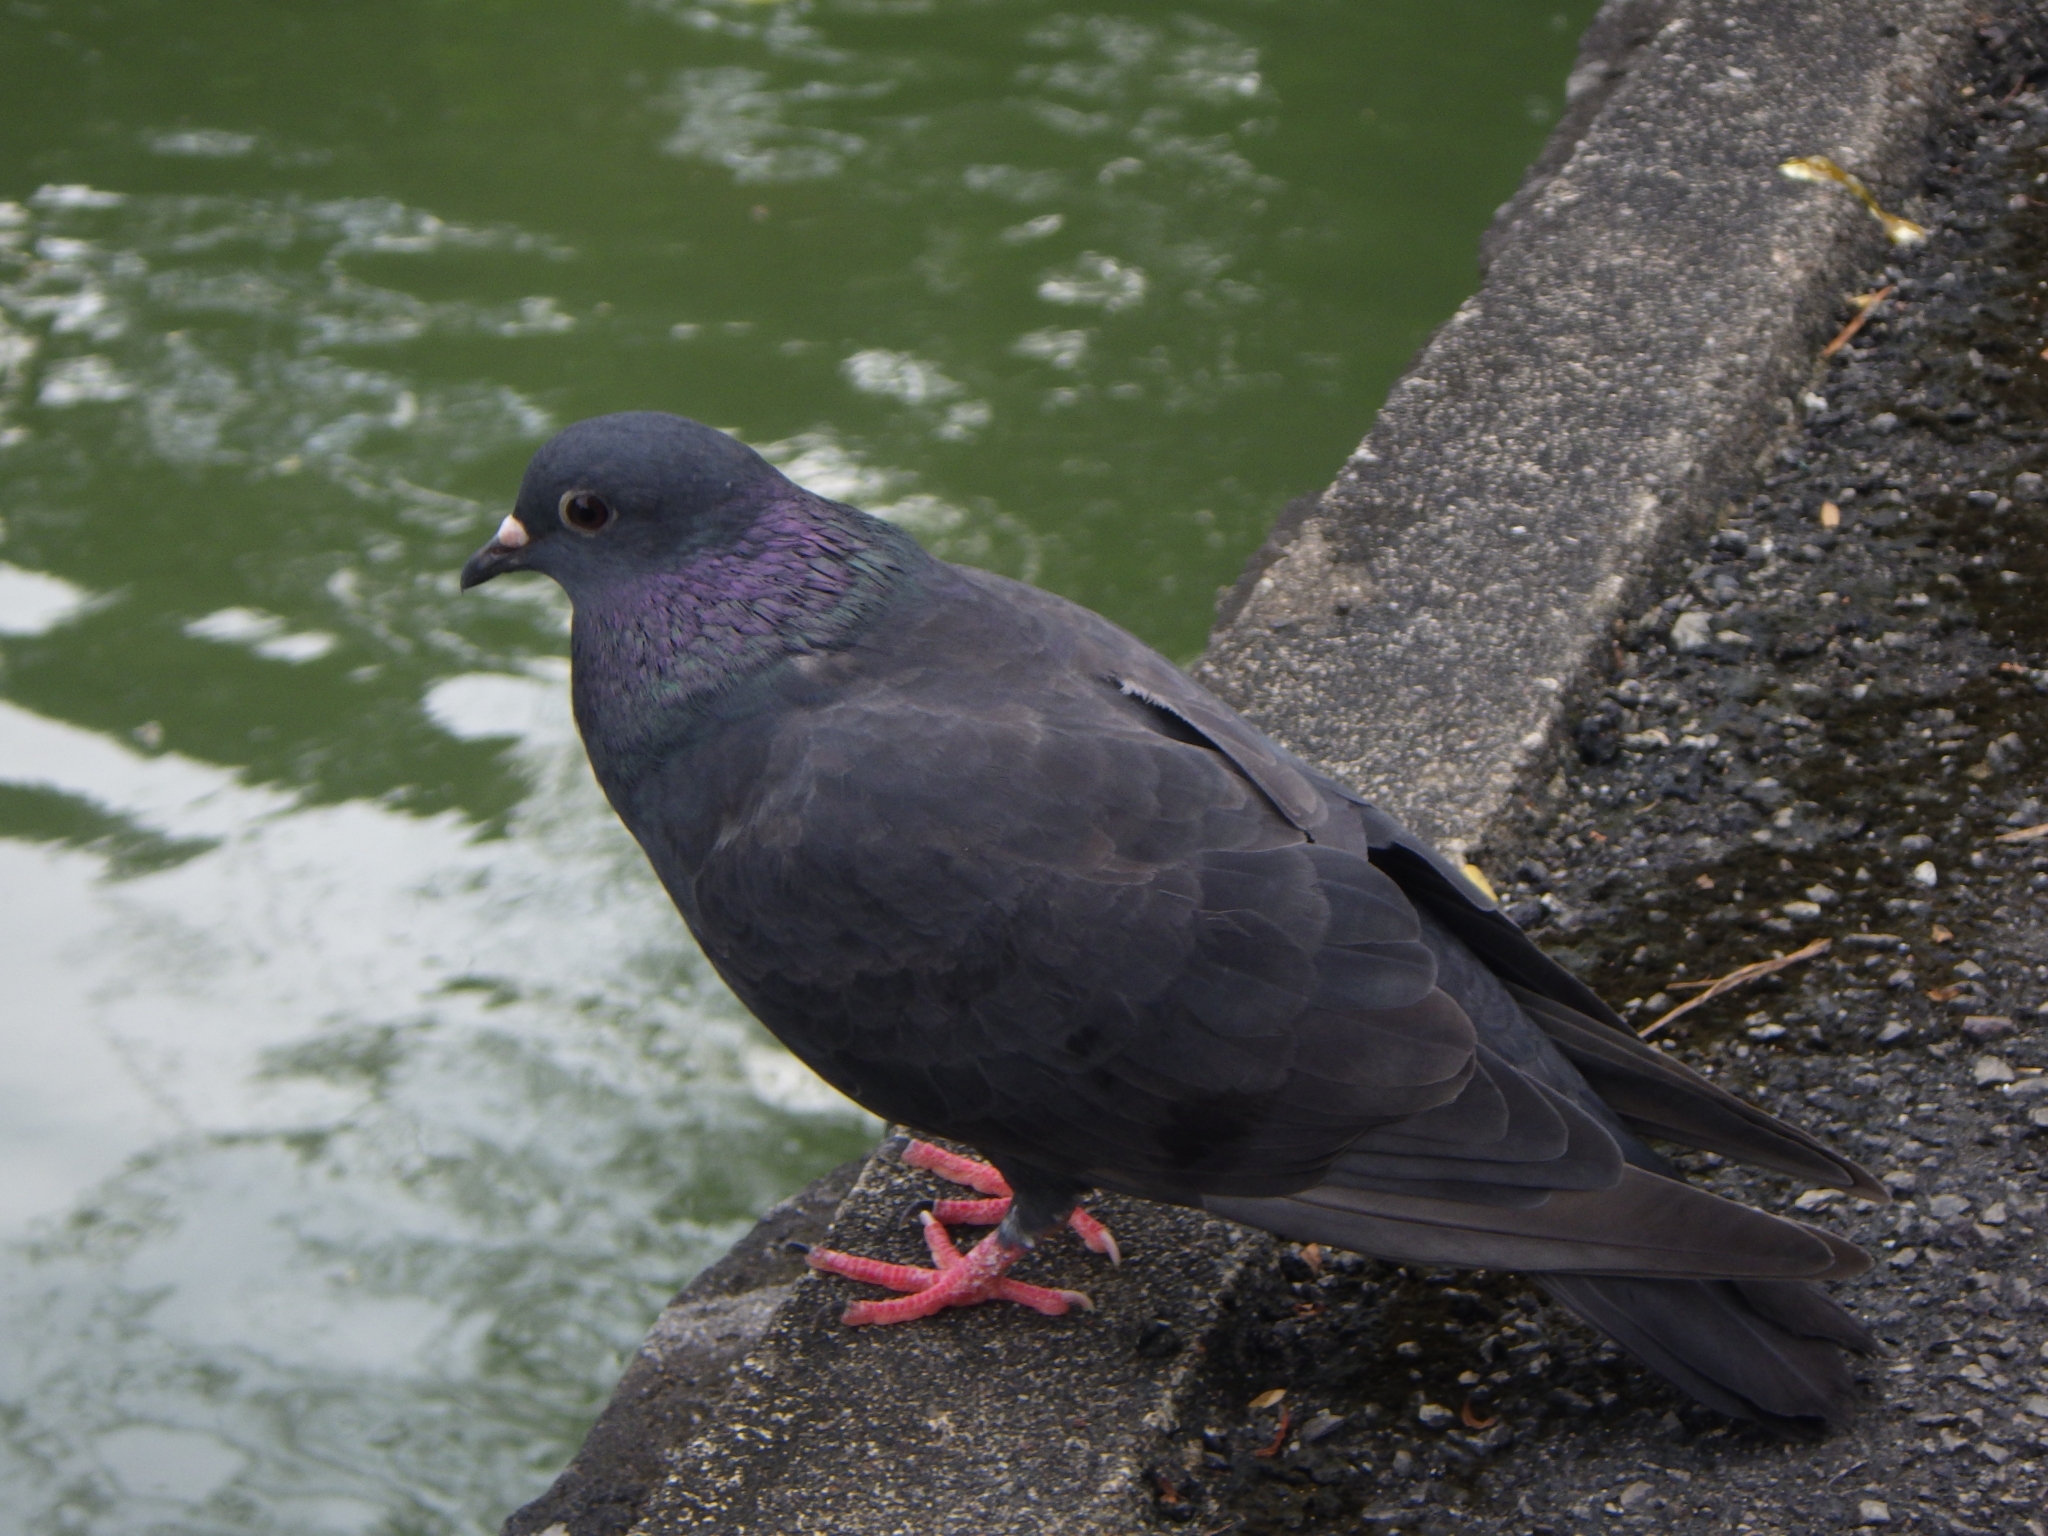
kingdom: Animalia
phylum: Chordata
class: Aves
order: Columbiformes
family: Columbidae
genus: Columba
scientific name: Columba livia
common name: Rock pigeon
